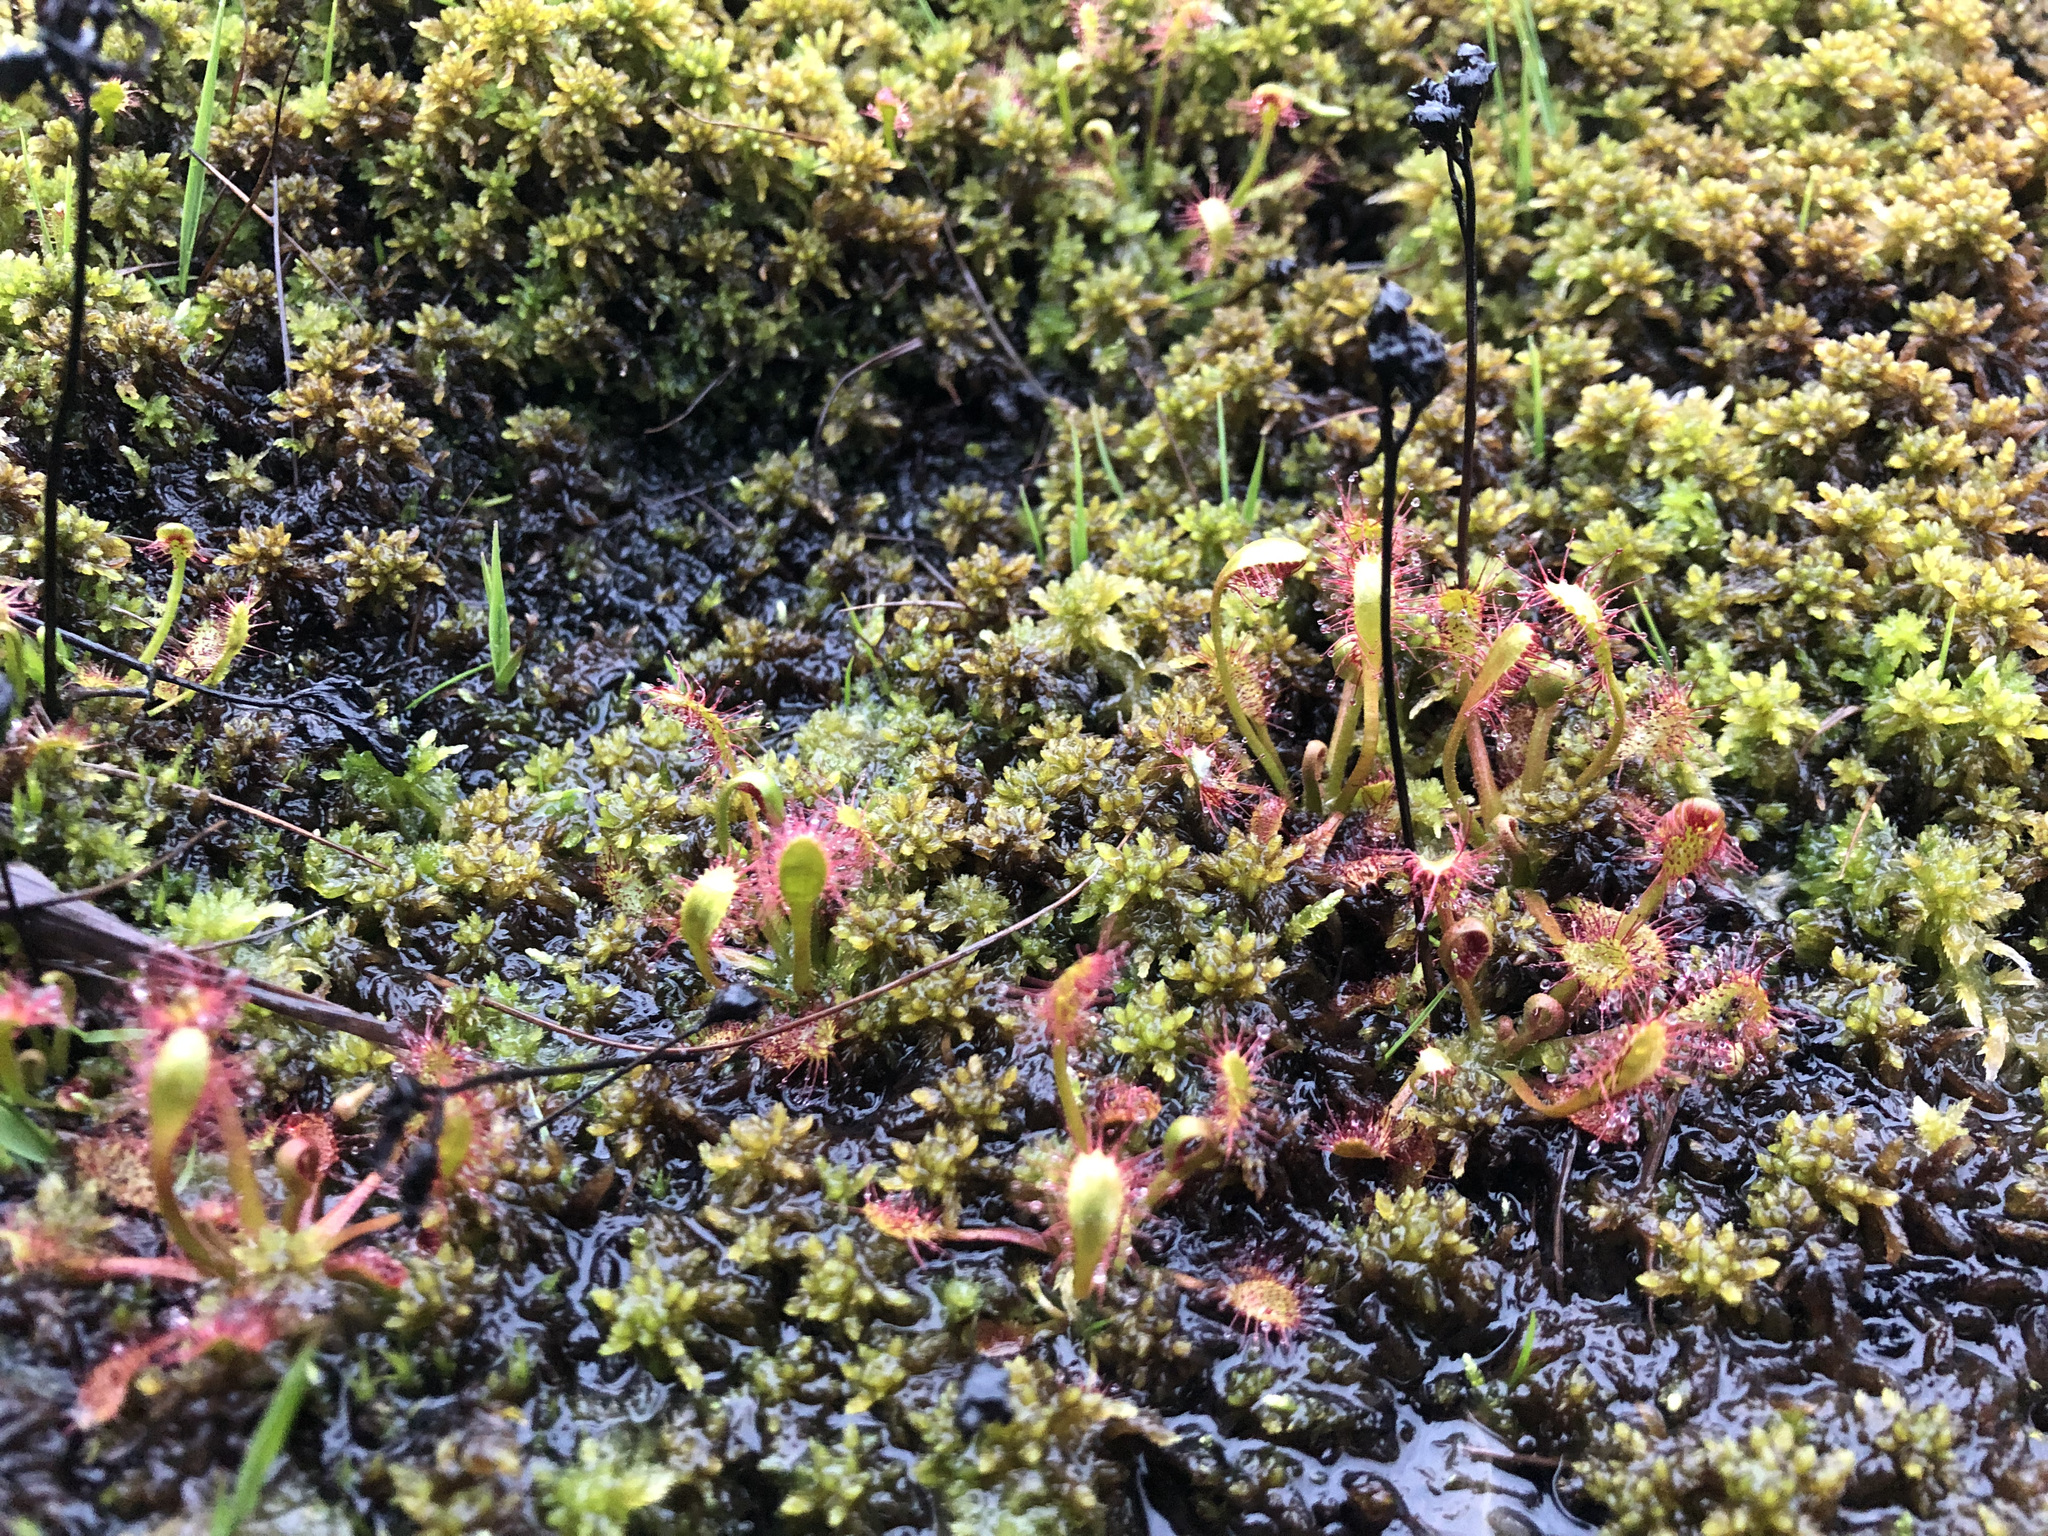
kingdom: Plantae
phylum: Tracheophyta
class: Magnoliopsida
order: Caryophyllales
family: Droseraceae
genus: Drosera
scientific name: Drosera anglica
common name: Great sundew
